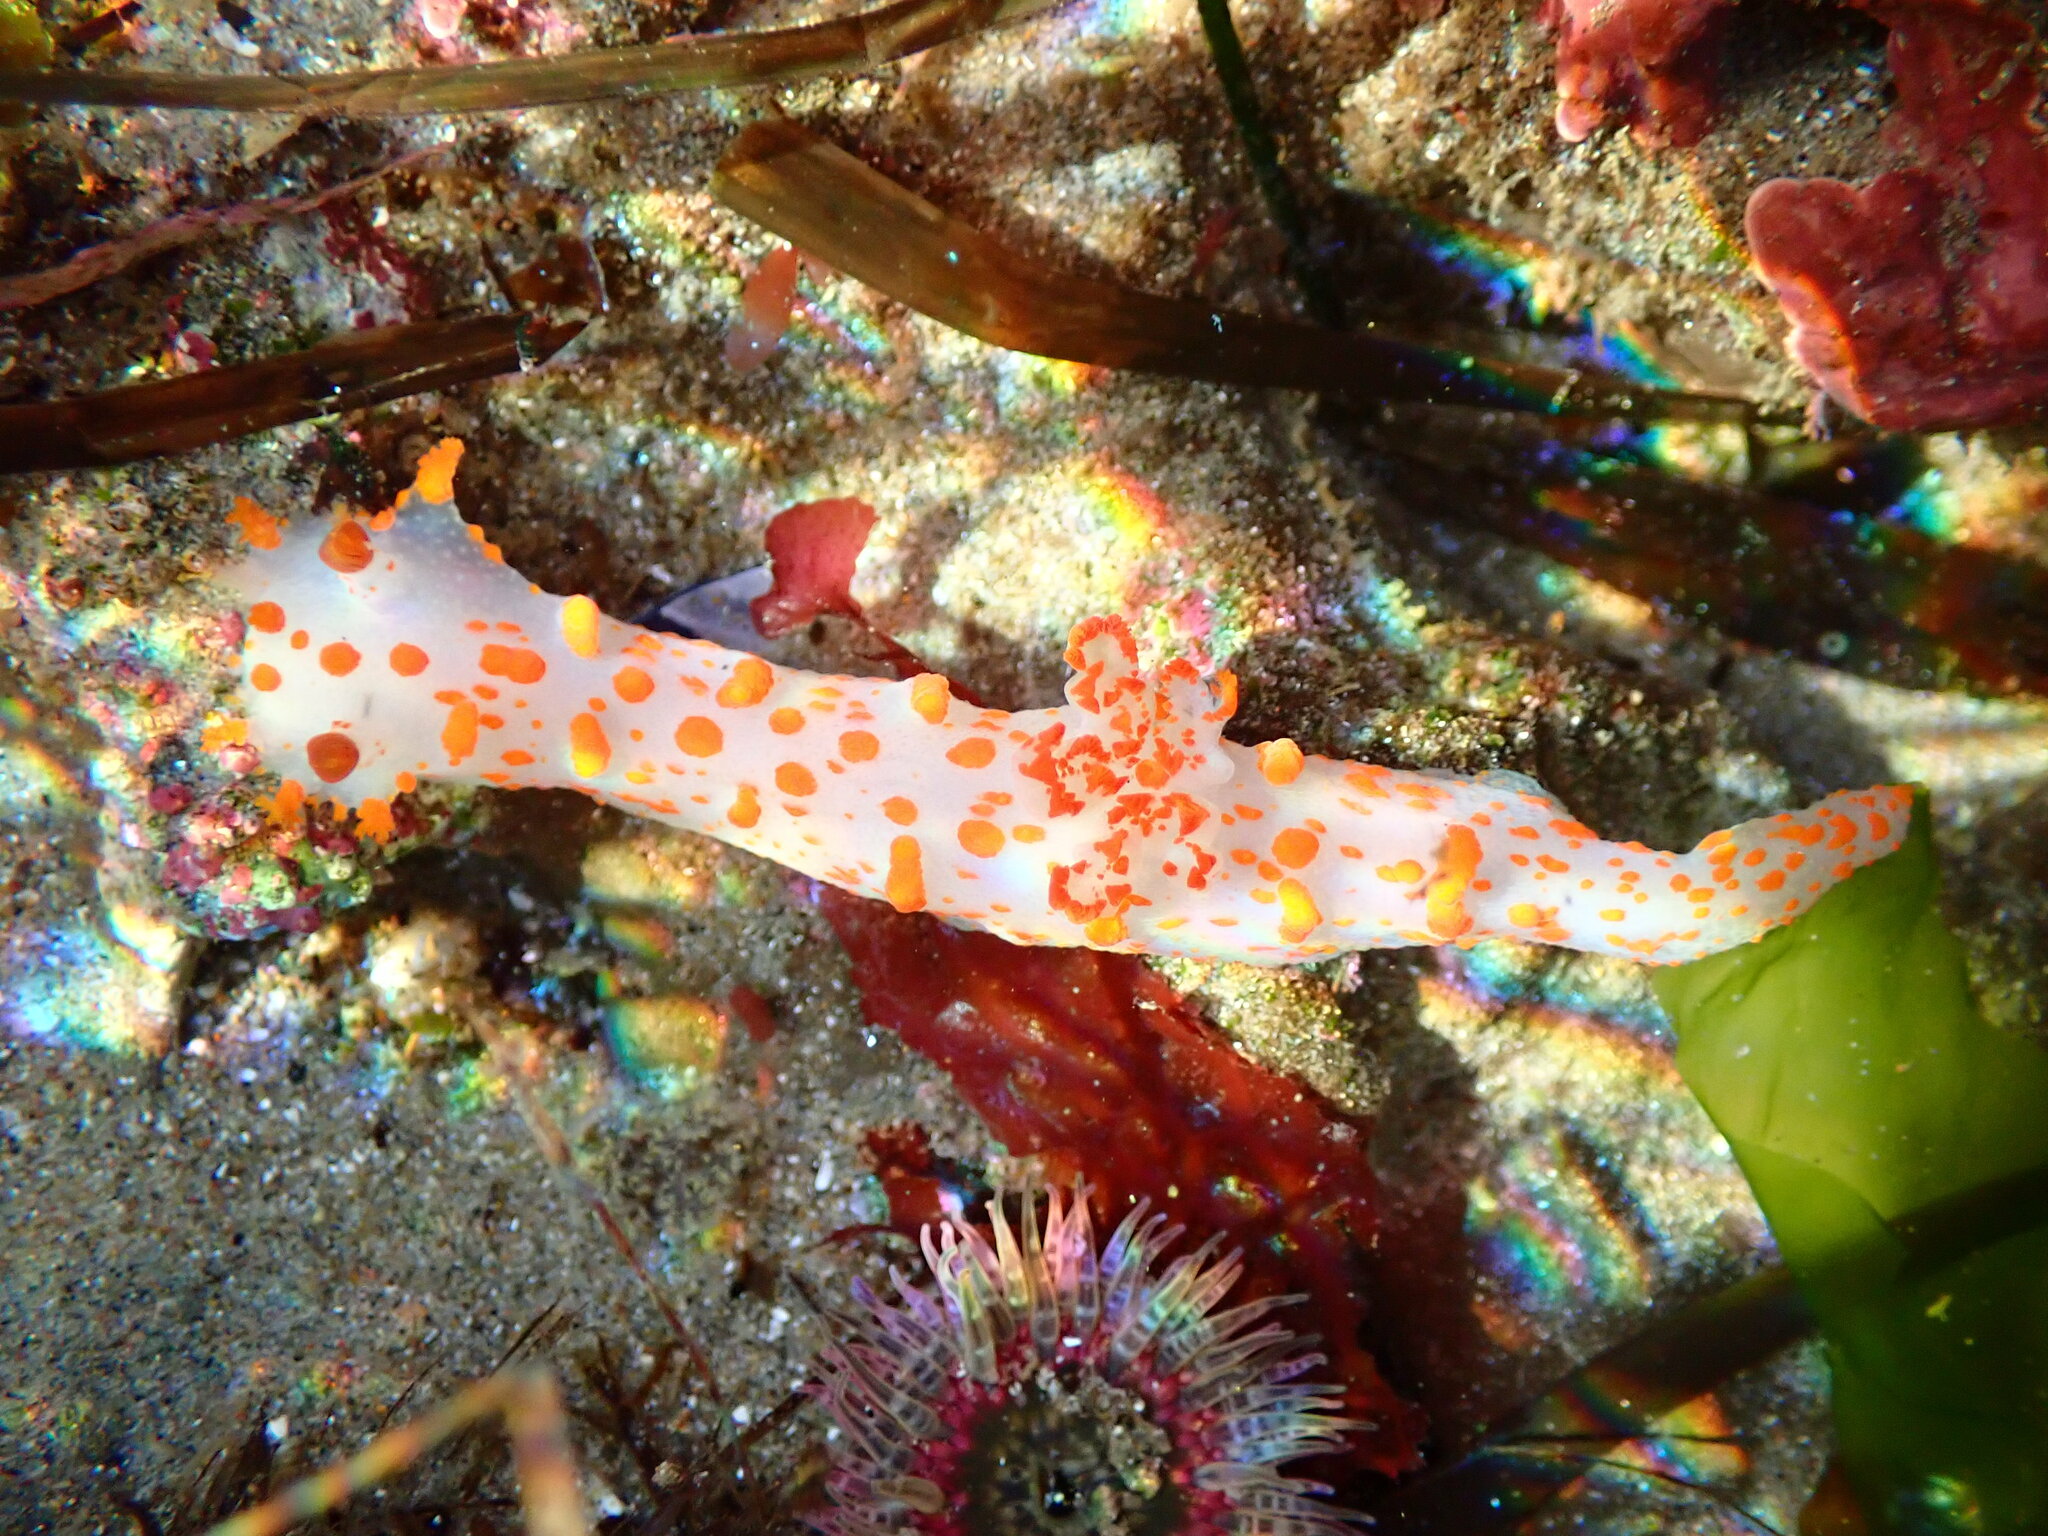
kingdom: Animalia
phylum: Mollusca
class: Gastropoda
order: Nudibranchia
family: Polyceridae
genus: Triopha
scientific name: Triopha catalinae
